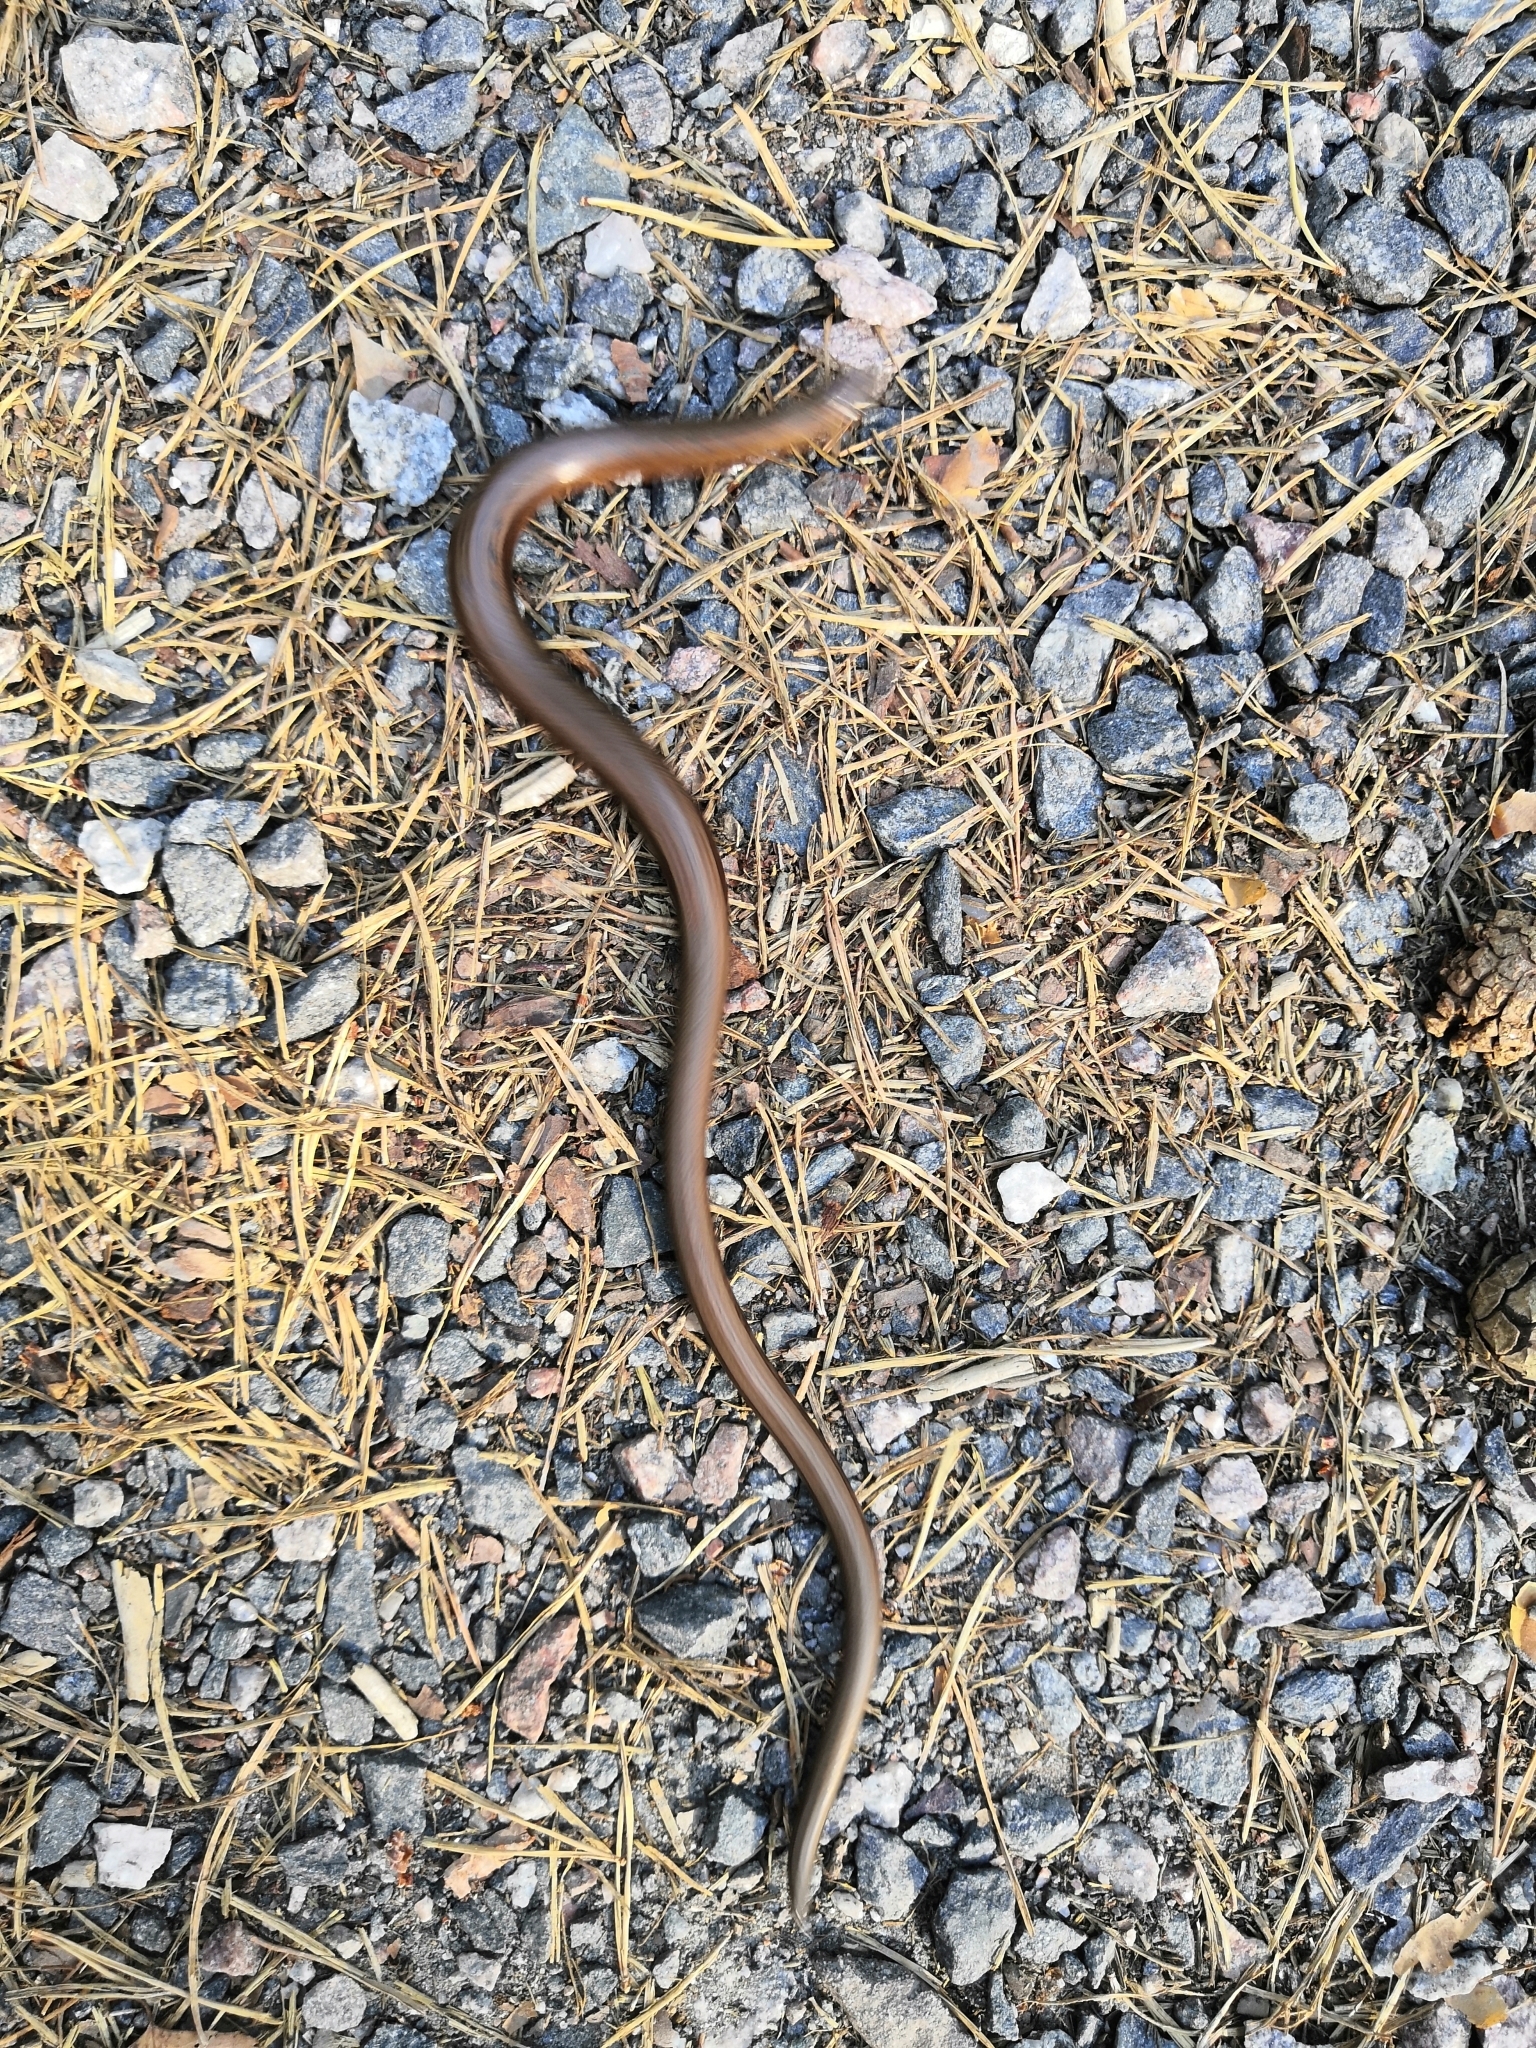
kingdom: Animalia
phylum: Chordata
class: Squamata
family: Anguidae
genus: Anguis
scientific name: Anguis colchica
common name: Slow worm
